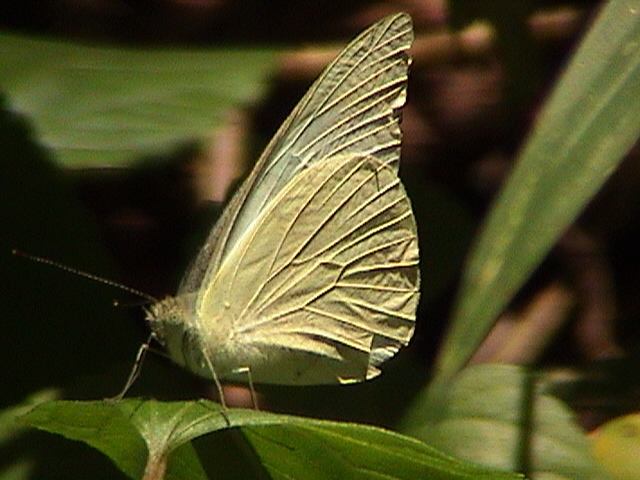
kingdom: Animalia
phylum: Arthropoda
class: Insecta
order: Lepidoptera
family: Pieridae
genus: Appias
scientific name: Appias albina
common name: Common albatross
